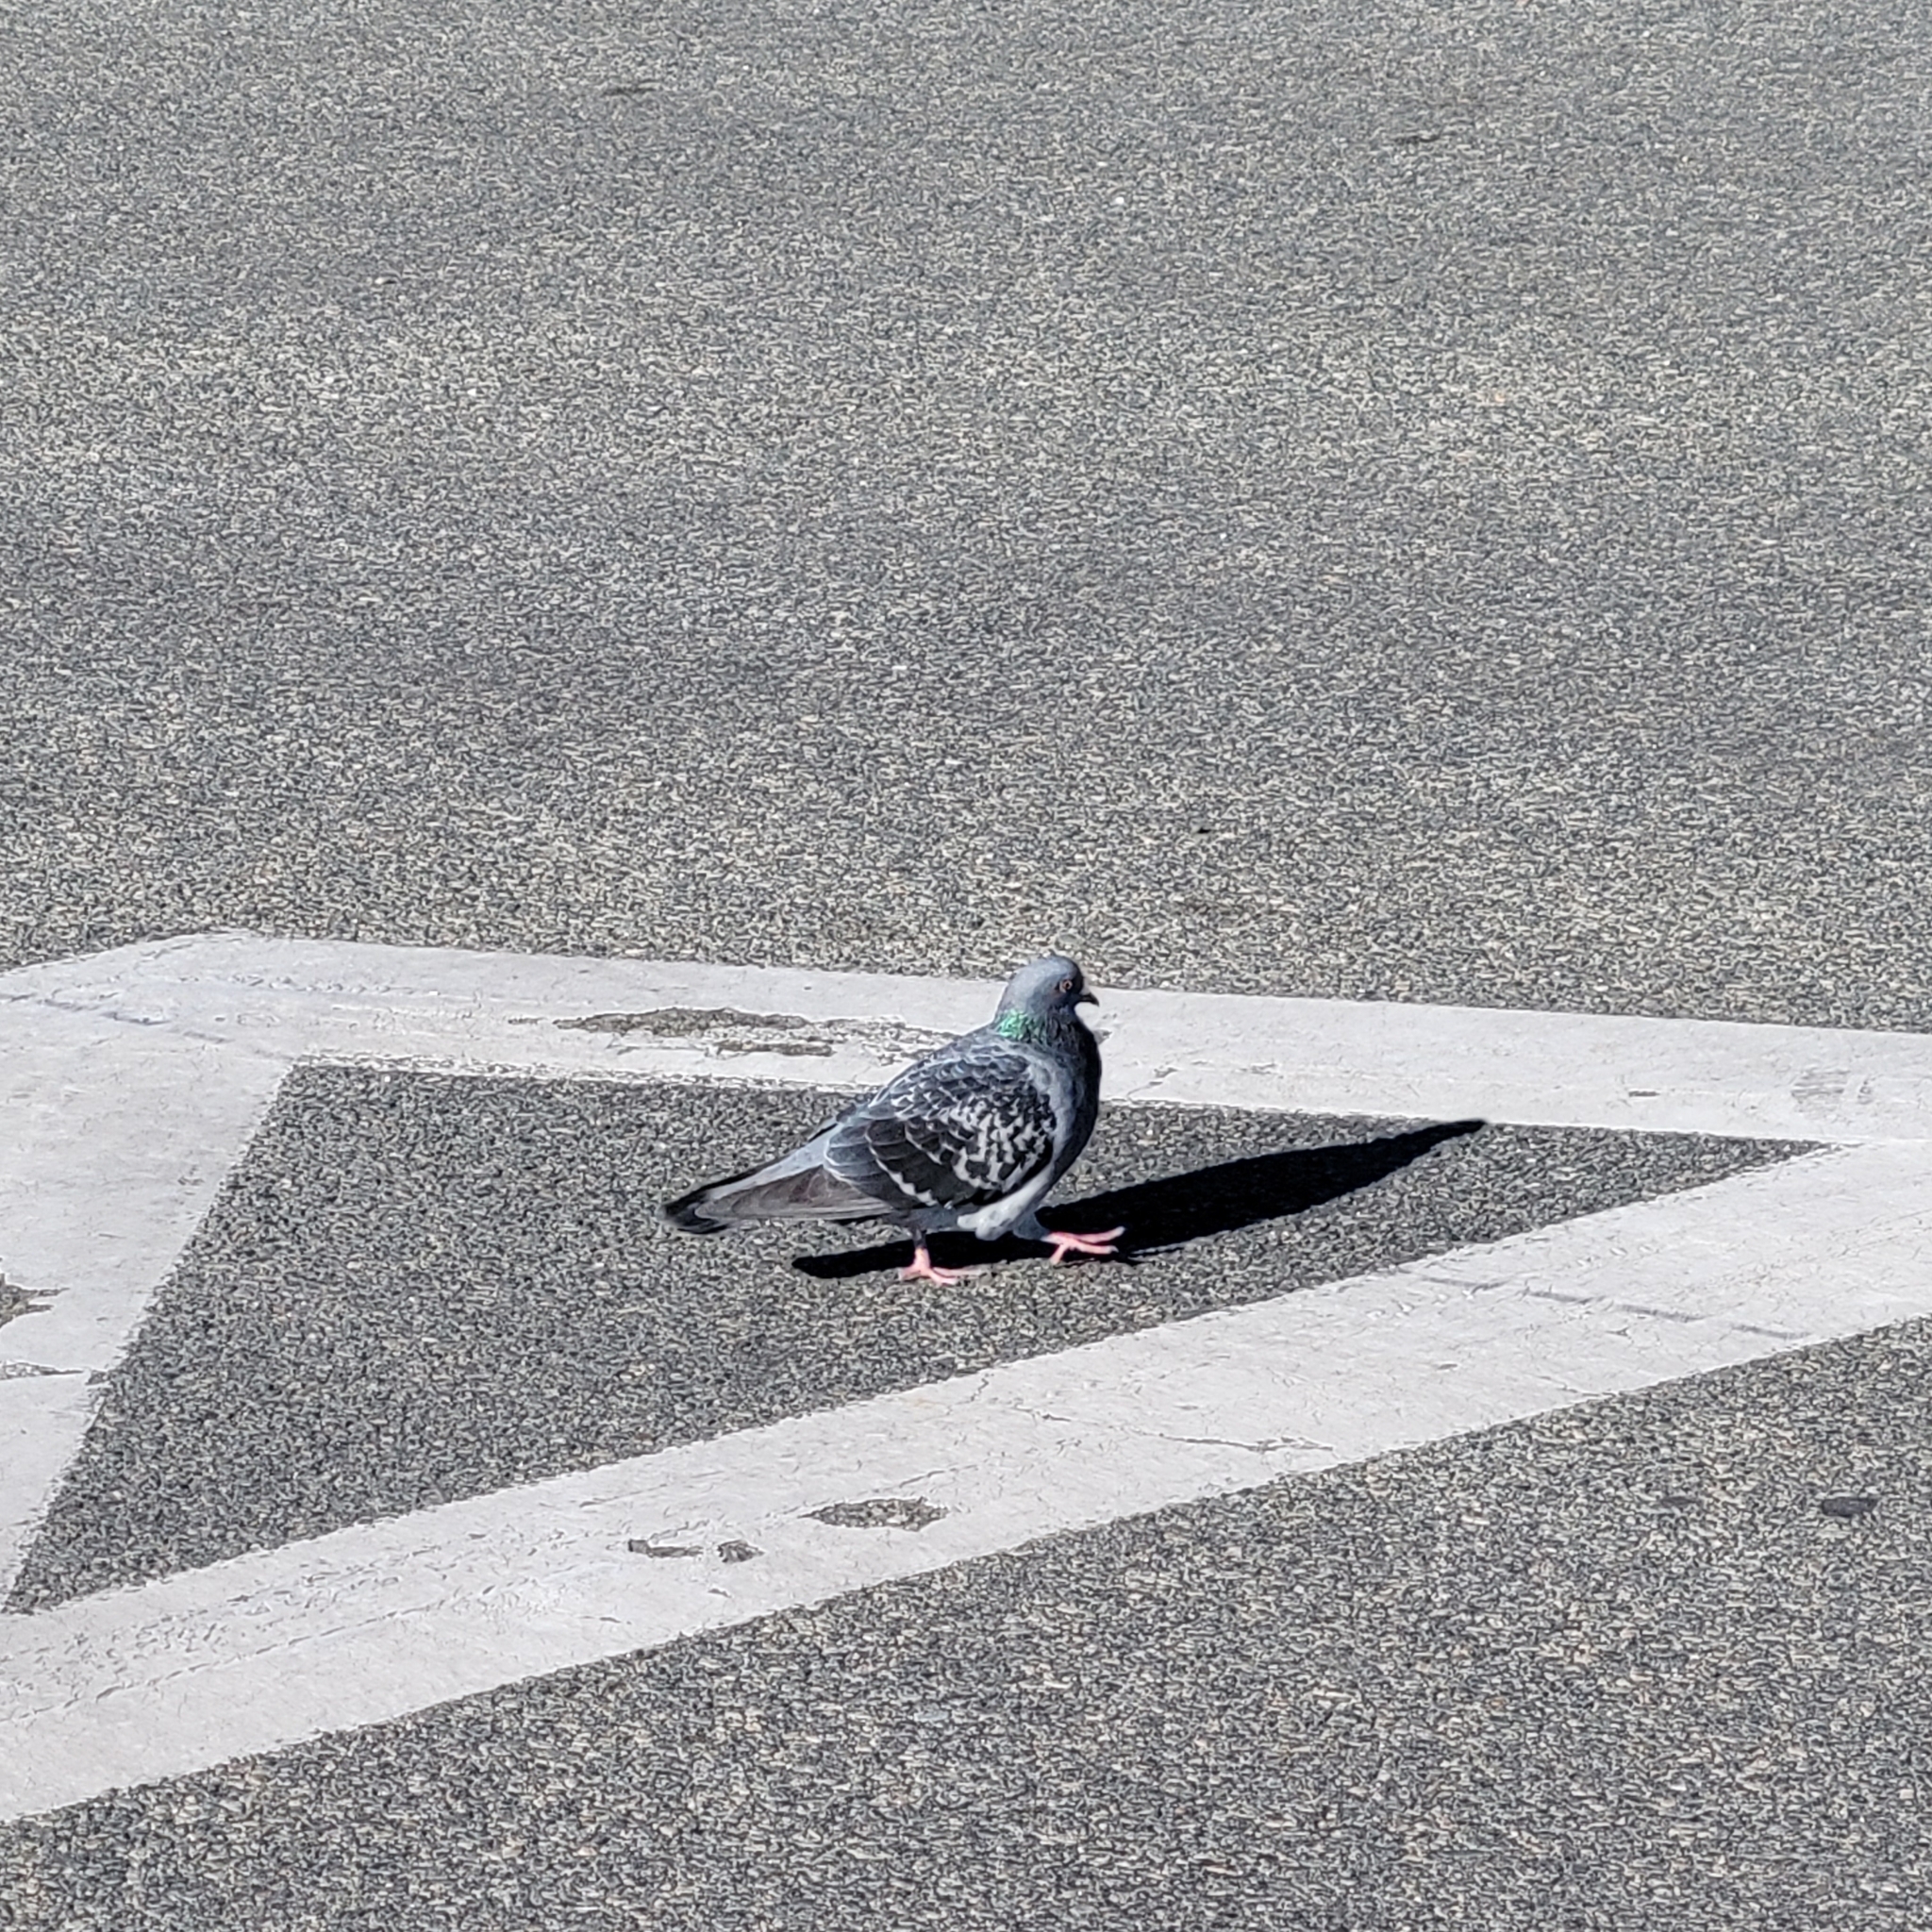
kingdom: Animalia
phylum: Chordata
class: Aves
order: Columbiformes
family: Columbidae
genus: Columba
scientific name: Columba livia
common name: Rock pigeon
